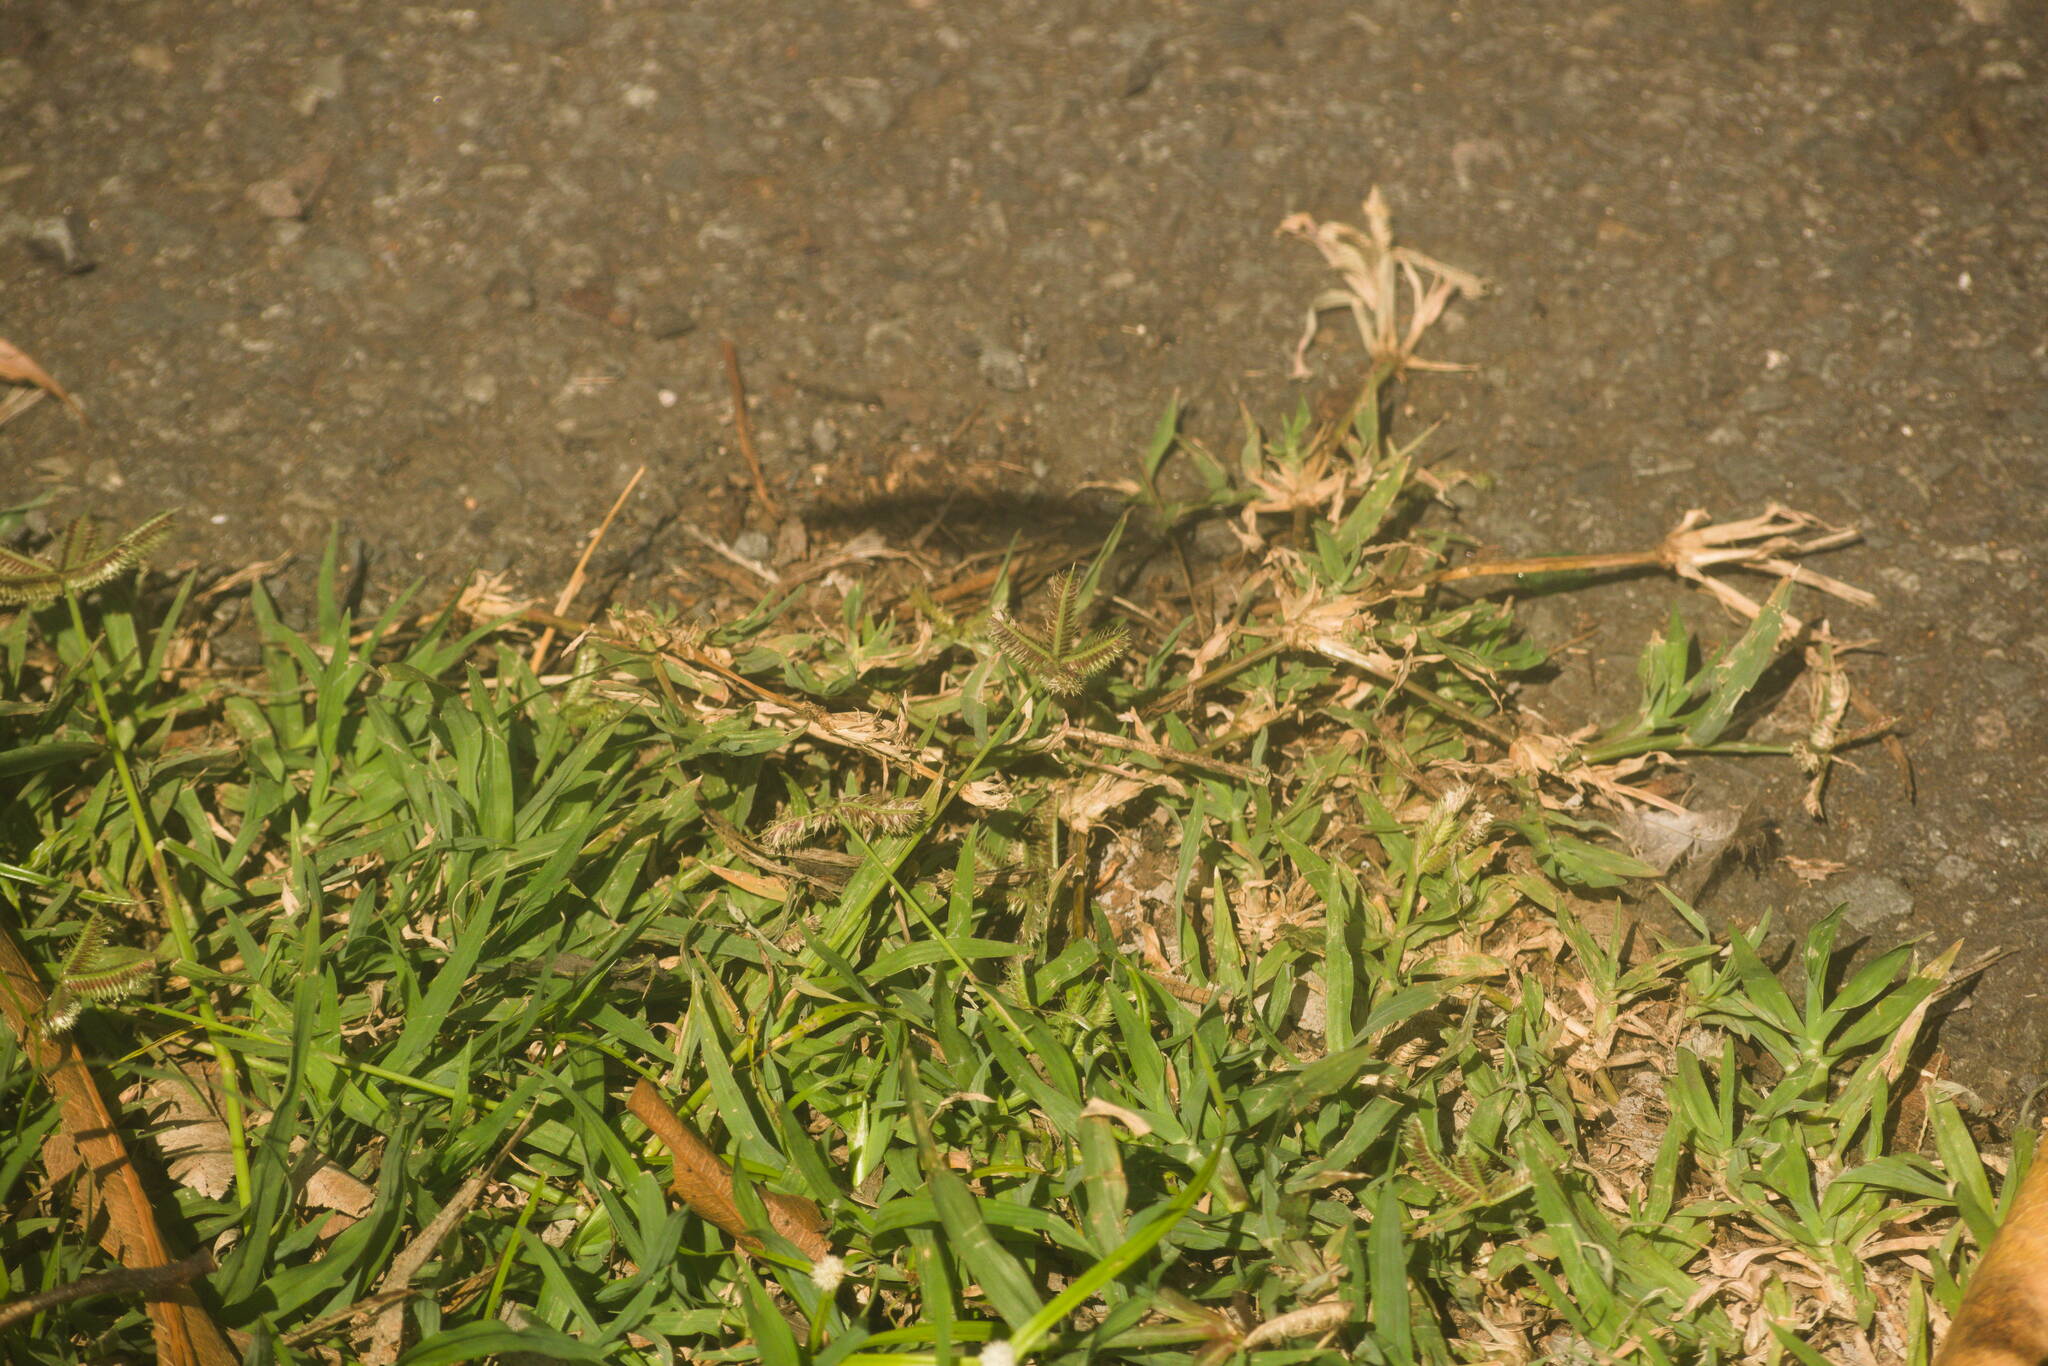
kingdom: Plantae
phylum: Tracheophyta
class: Liliopsida
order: Poales
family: Poaceae
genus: Dactyloctenium
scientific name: Dactyloctenium aegyptium
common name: Egyptian grass
